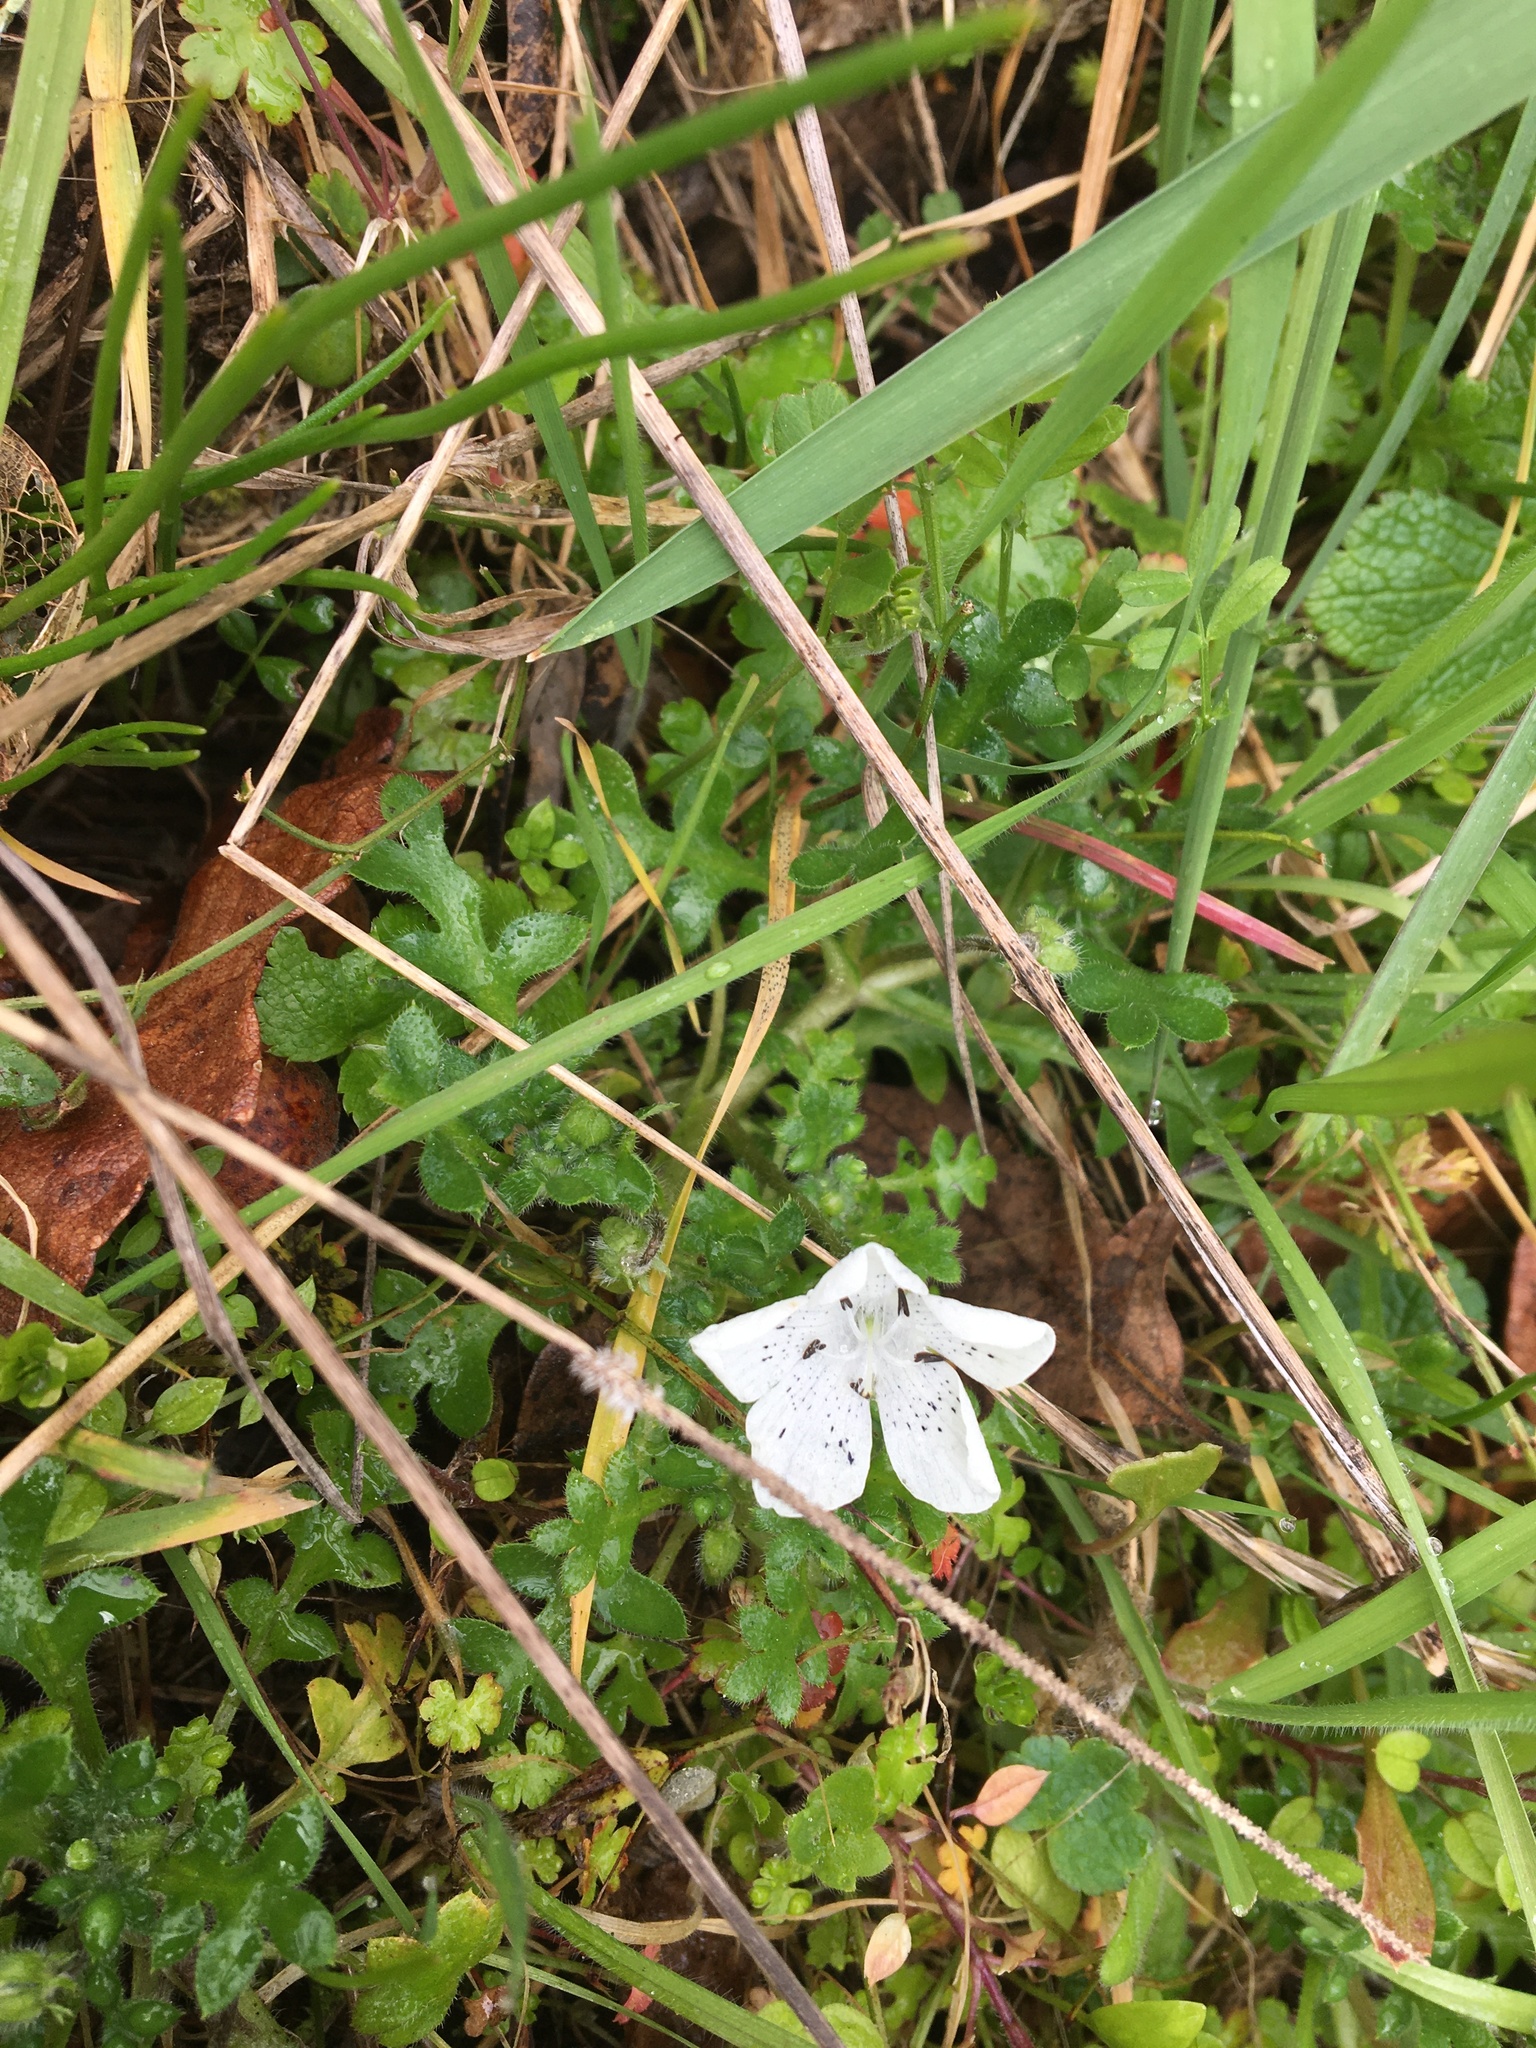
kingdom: Plantae
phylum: Tracheophyta
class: Magnoliopsida
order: Boraginales
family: Hydrophyllaceae
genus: Nemophila
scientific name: Nemophila menziesii
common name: Baby's-blue-eyes
